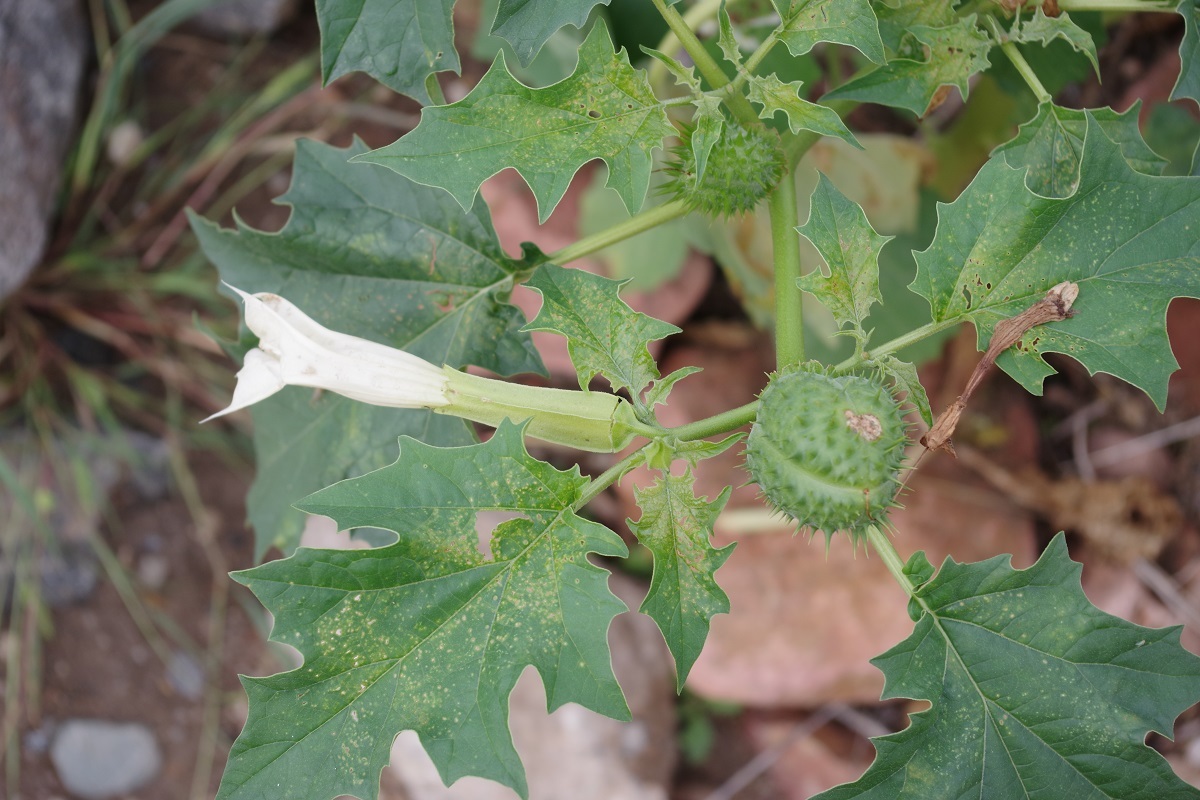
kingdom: Plantae
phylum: Tracheophyta
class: Magnoliopsida
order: Solanales
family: Solanaceae
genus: Datura
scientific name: Datura stramonium
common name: Thorn-apple
